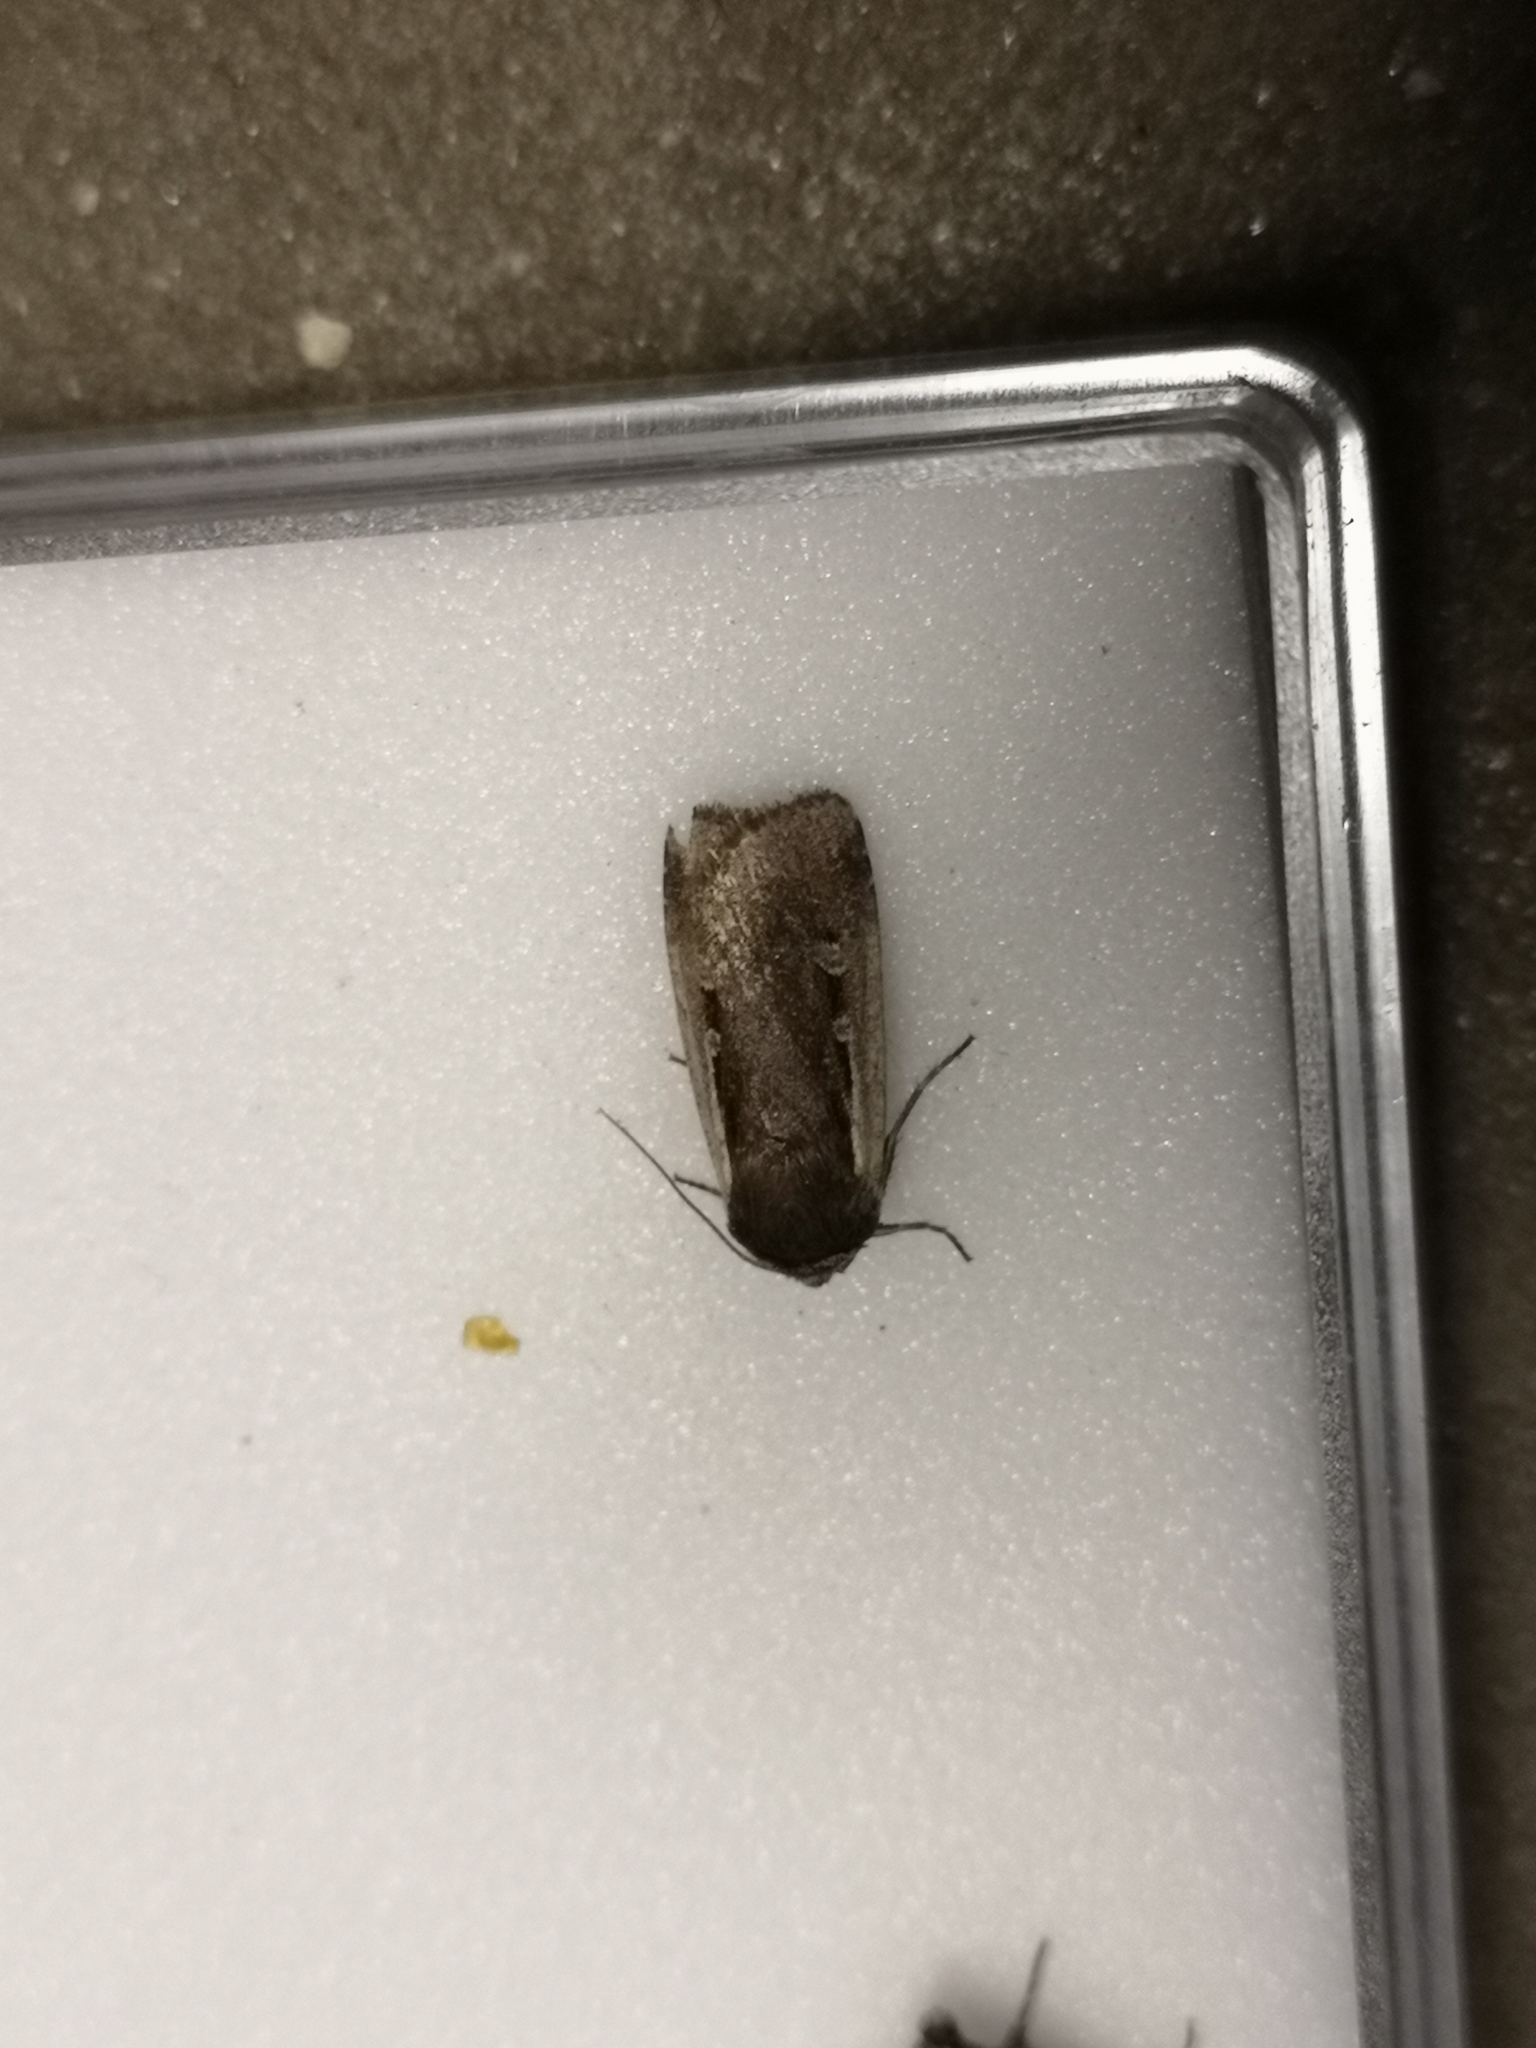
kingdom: Animalia
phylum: Arthropoda
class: Insecta
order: Lepidoptera
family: Noctuidae
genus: Ochropleura
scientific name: Ochropleura plecta
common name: Flame shoulder
